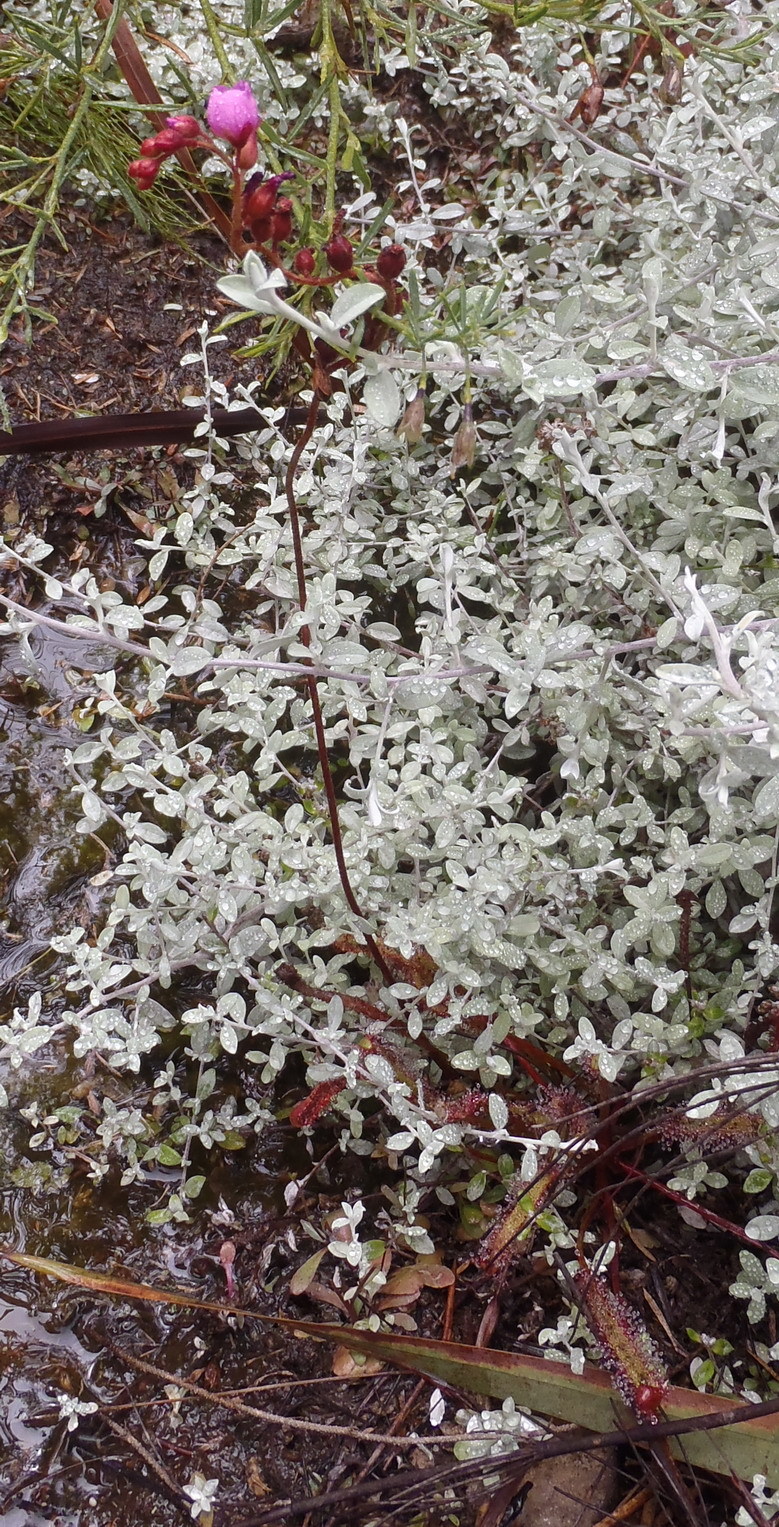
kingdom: Plantae
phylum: Tracheophyta
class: Magnoliopsida
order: Caryophyllales
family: Droseraceae
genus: Drosera
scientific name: Drosera capensis
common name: Cape sundew
